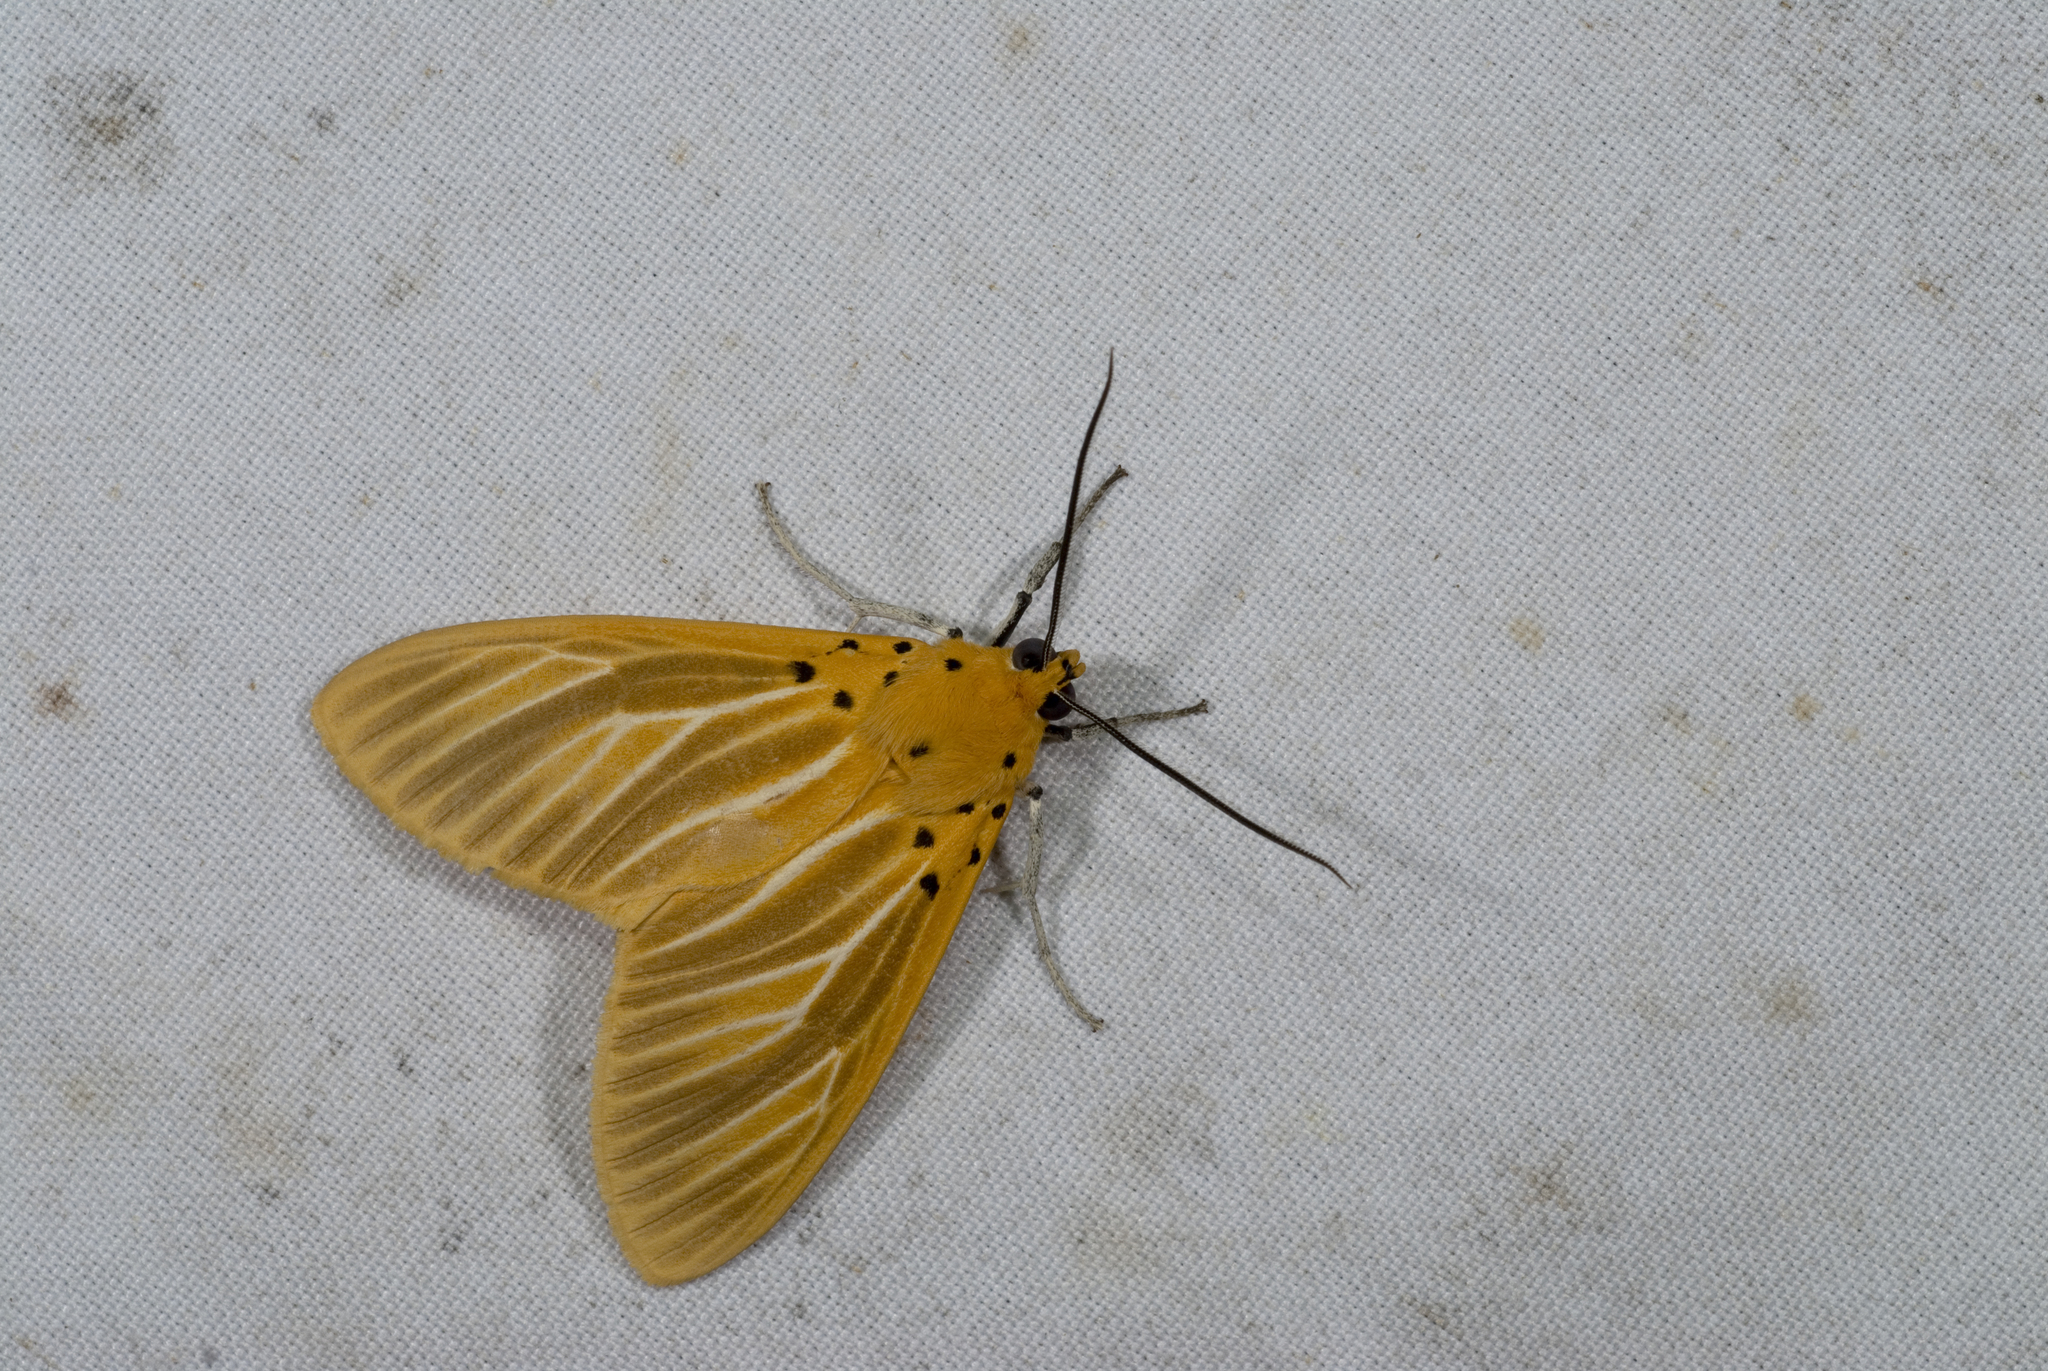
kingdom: Animalia
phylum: Arthropoda
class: Insecta
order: Lepidoptera
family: Erebidae
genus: Asota
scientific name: Asota egens
